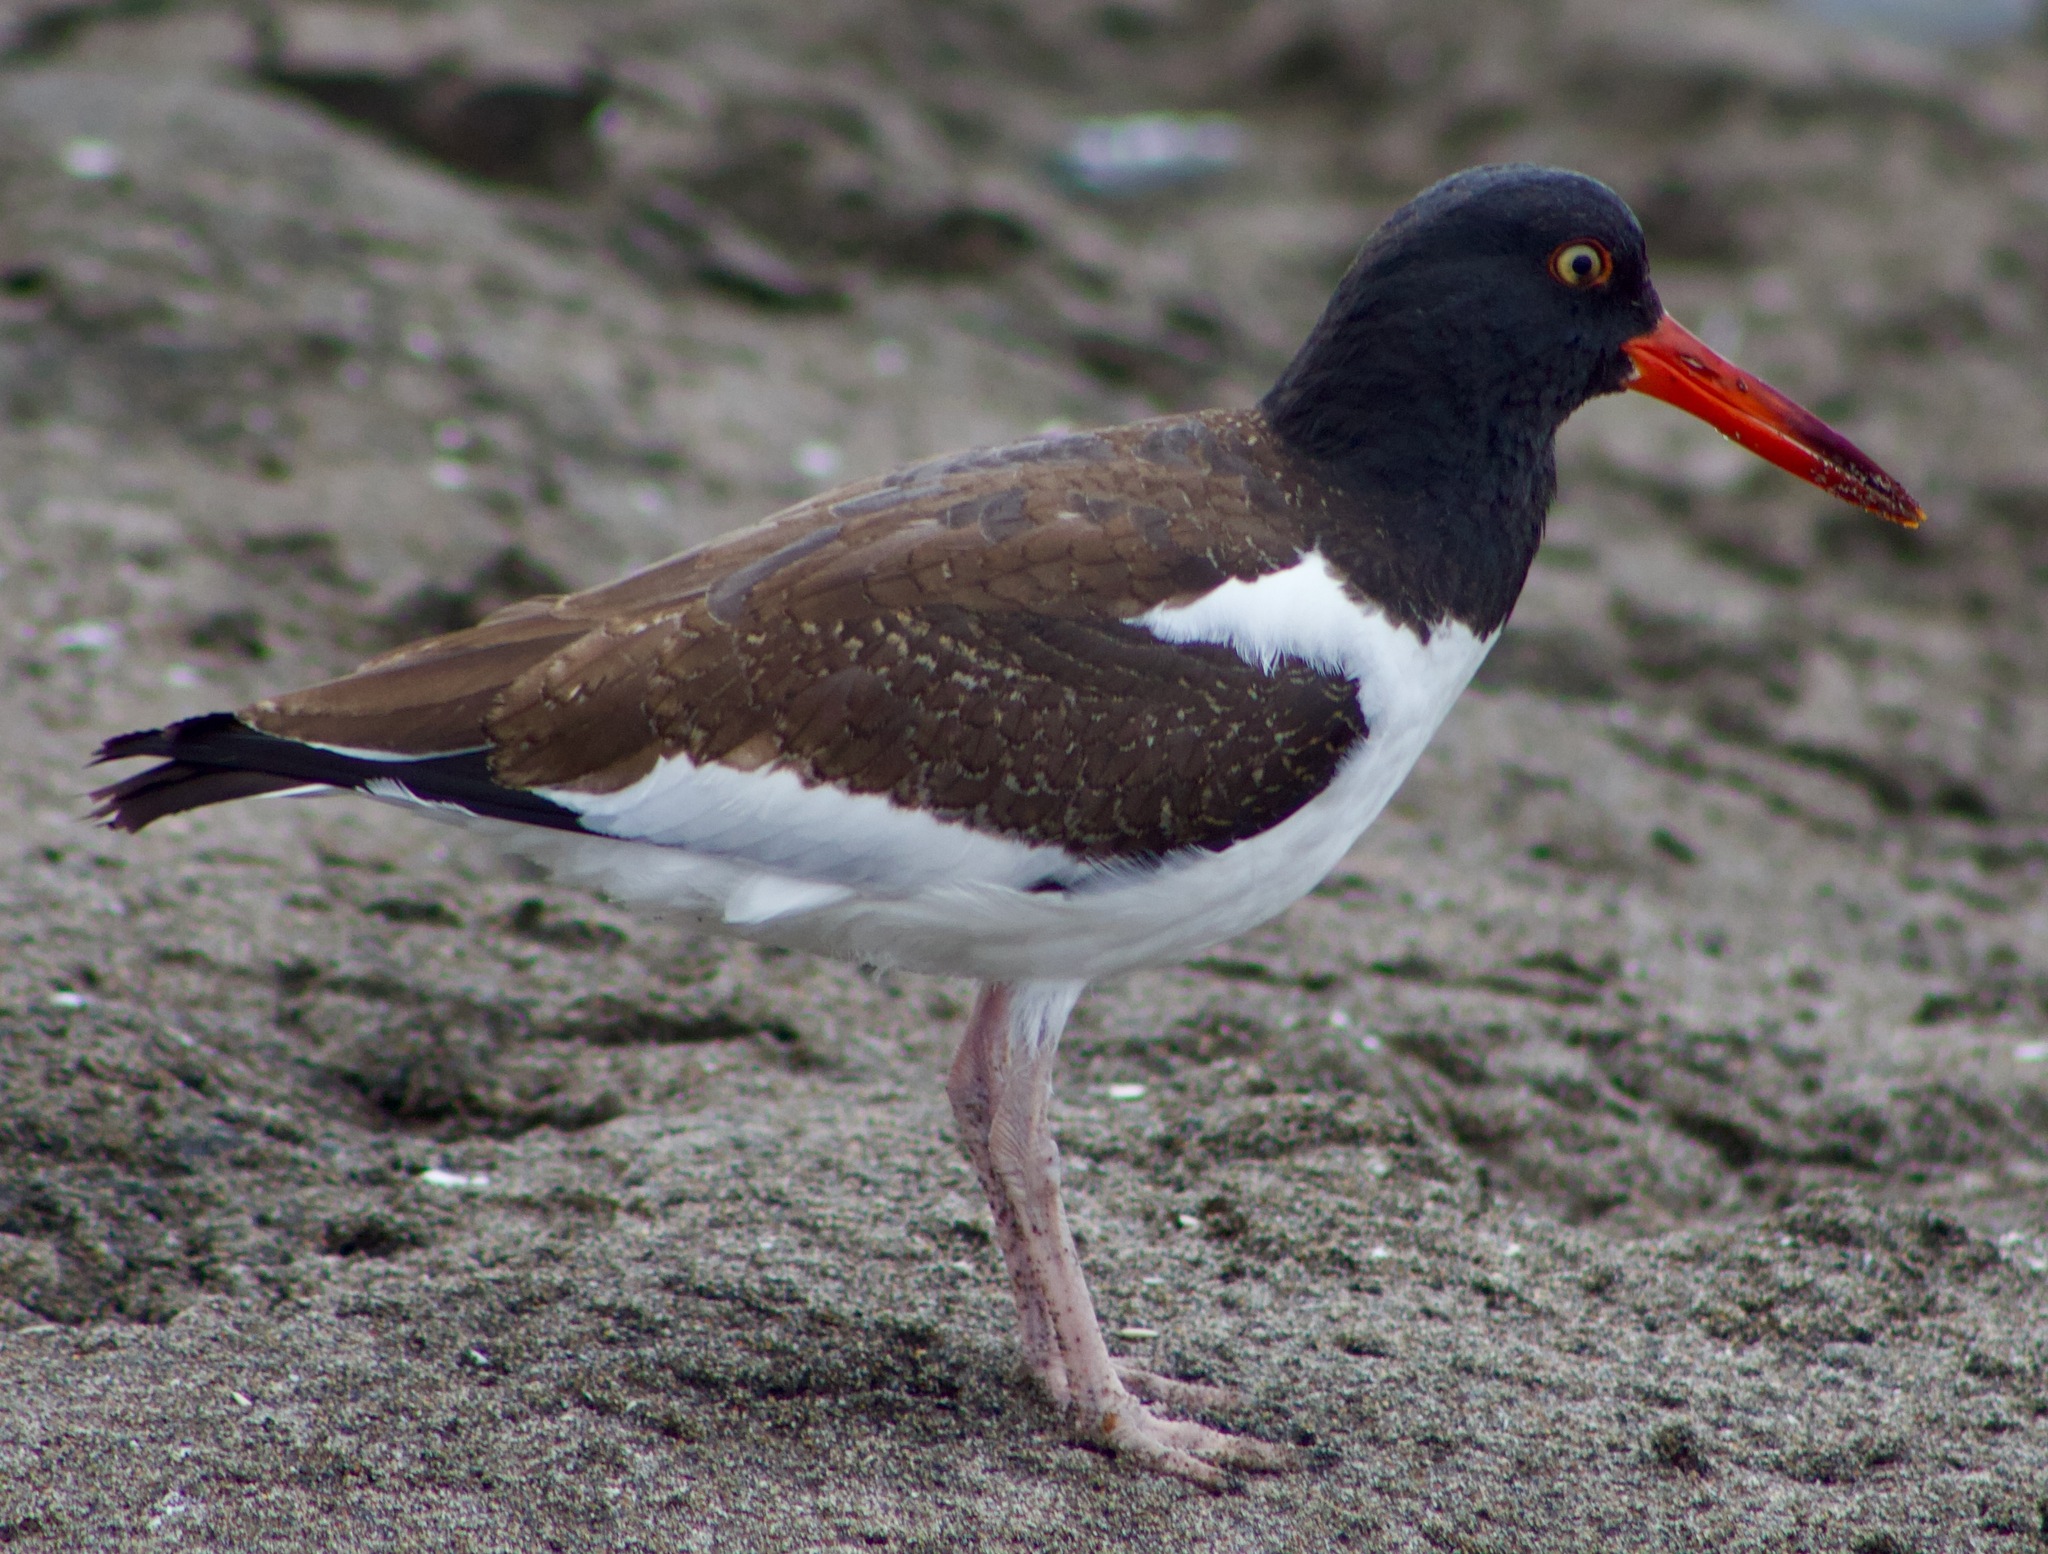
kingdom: Animalia
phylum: Chordata
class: Aves
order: Charadriiformes
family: Haematopodidae
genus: Haematopus
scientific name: Haematopus palliatus
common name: American oystercatcher
